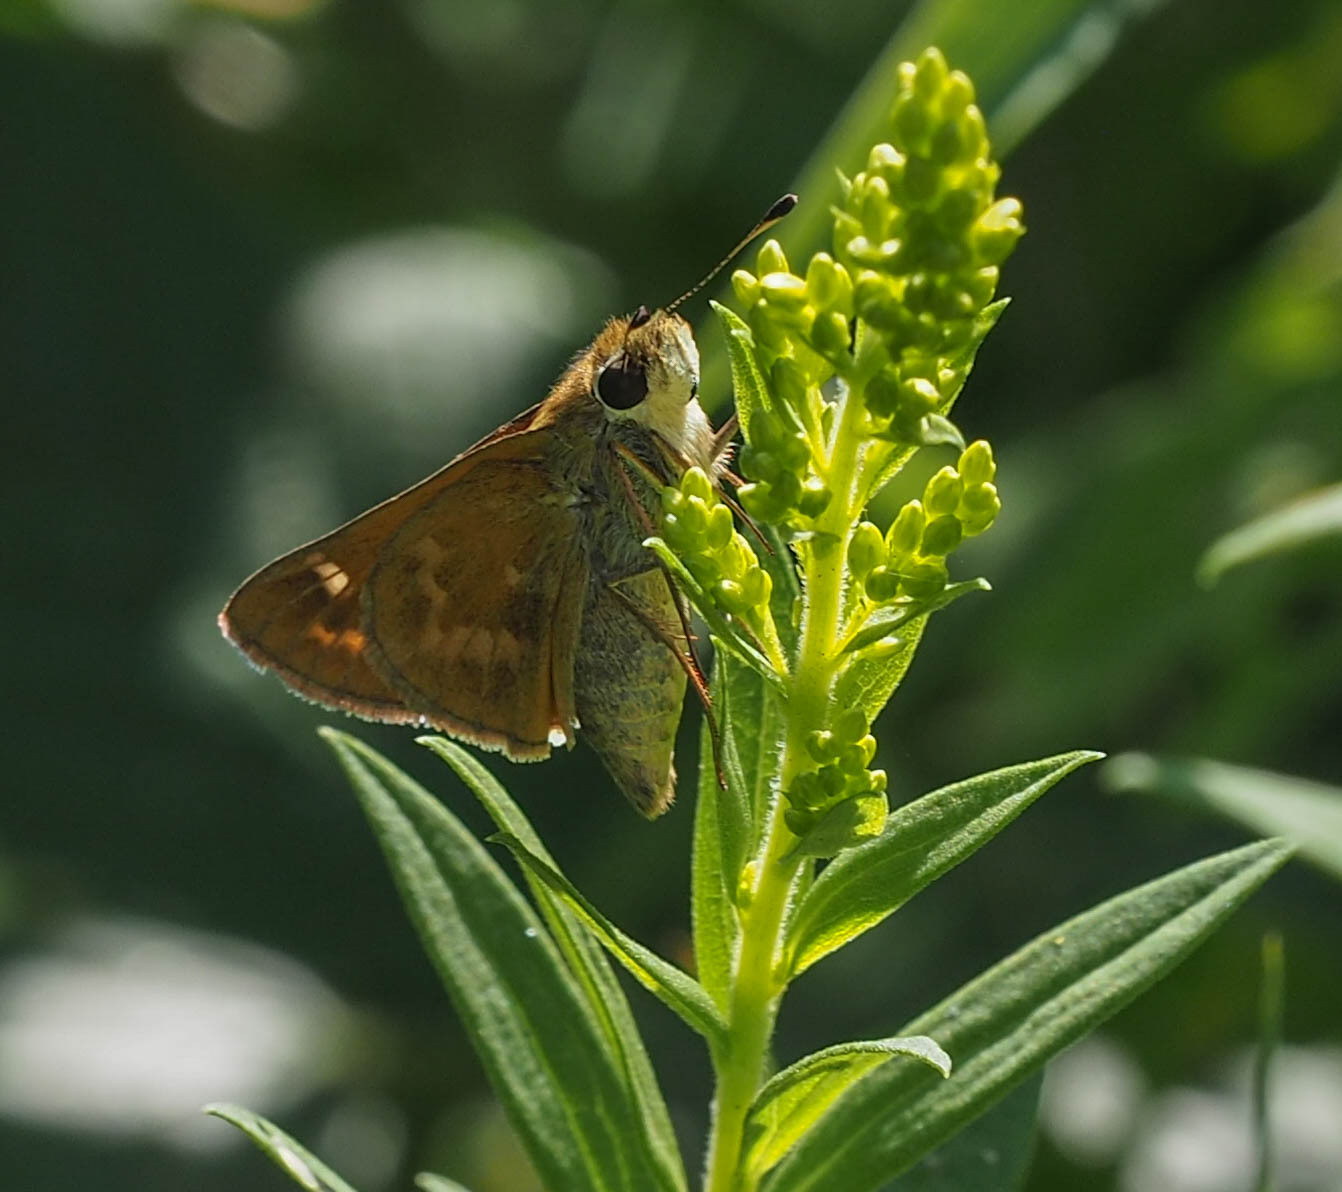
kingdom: Animalia
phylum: Arthropoda
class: Insecta
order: Lepidoptera
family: Hesperiidae
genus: Atalopedes
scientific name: Atalopedes
